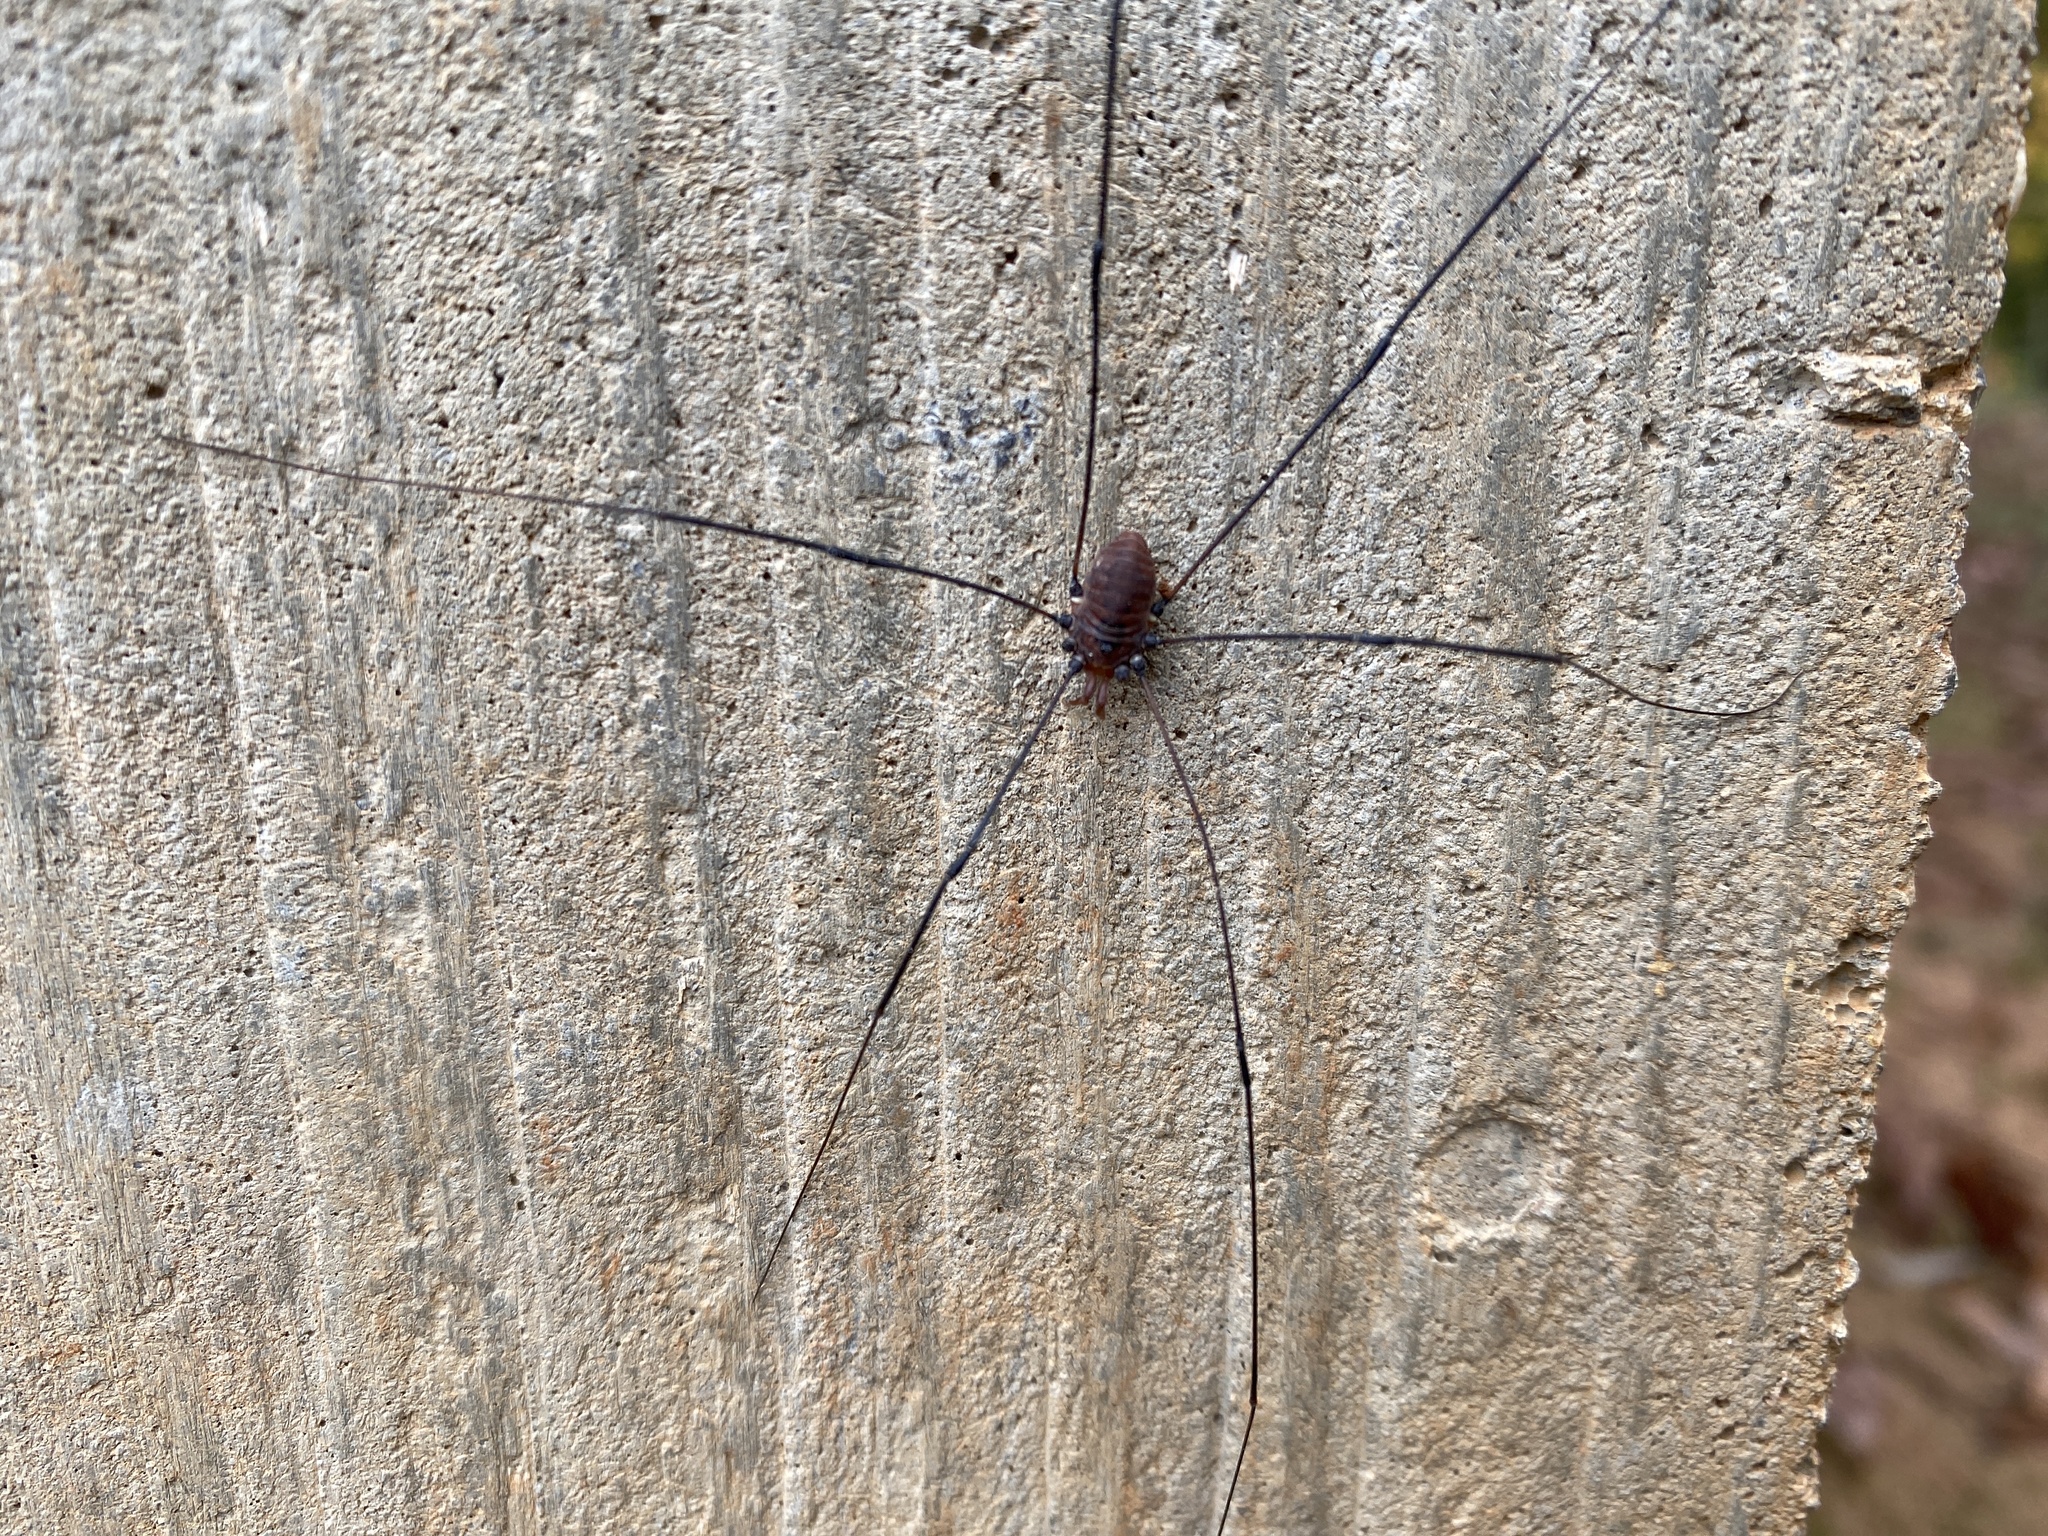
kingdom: Animalia
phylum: Arthropoda
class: Arachnida
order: Opiliones
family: Sclerosomatidae
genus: Leiobunum
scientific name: Leiobunum vittatum
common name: Eastern harvestman
